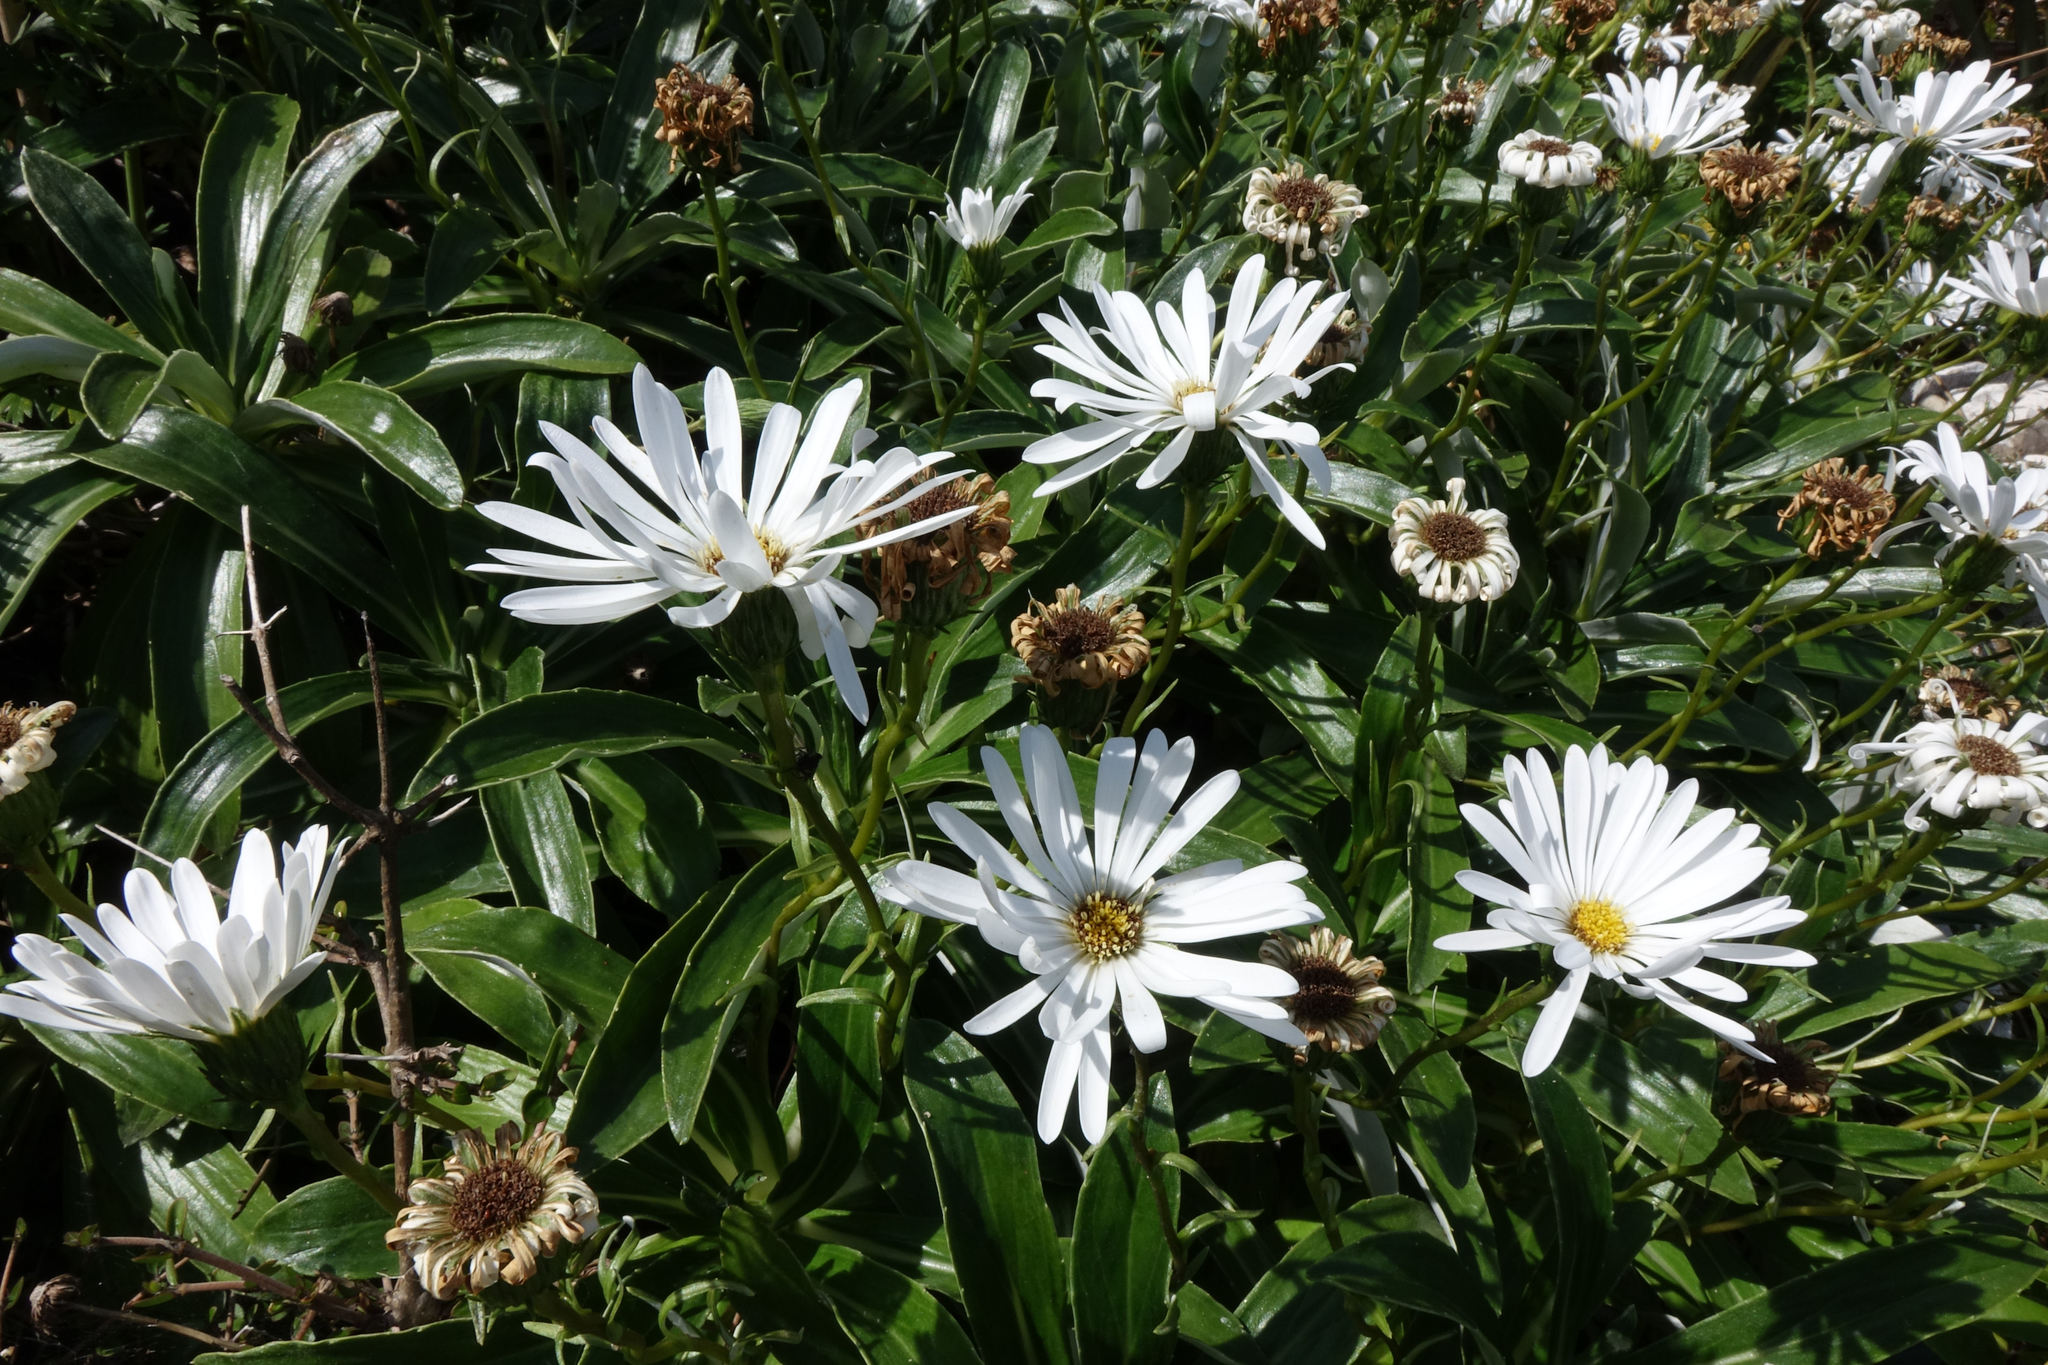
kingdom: Plantae
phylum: Tracheophyta
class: Magnoliopsida
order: Asterales
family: Asteraceae
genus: Celmisia
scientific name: Celmisia lindsayi
